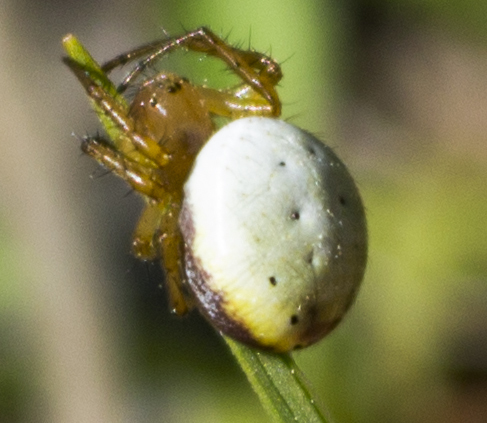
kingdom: Animalia
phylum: Arthropoda
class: Arachnida
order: Araneae
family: Araneidae
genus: Araniella
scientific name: Araniella displicata
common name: Sixspotted orb weaver
